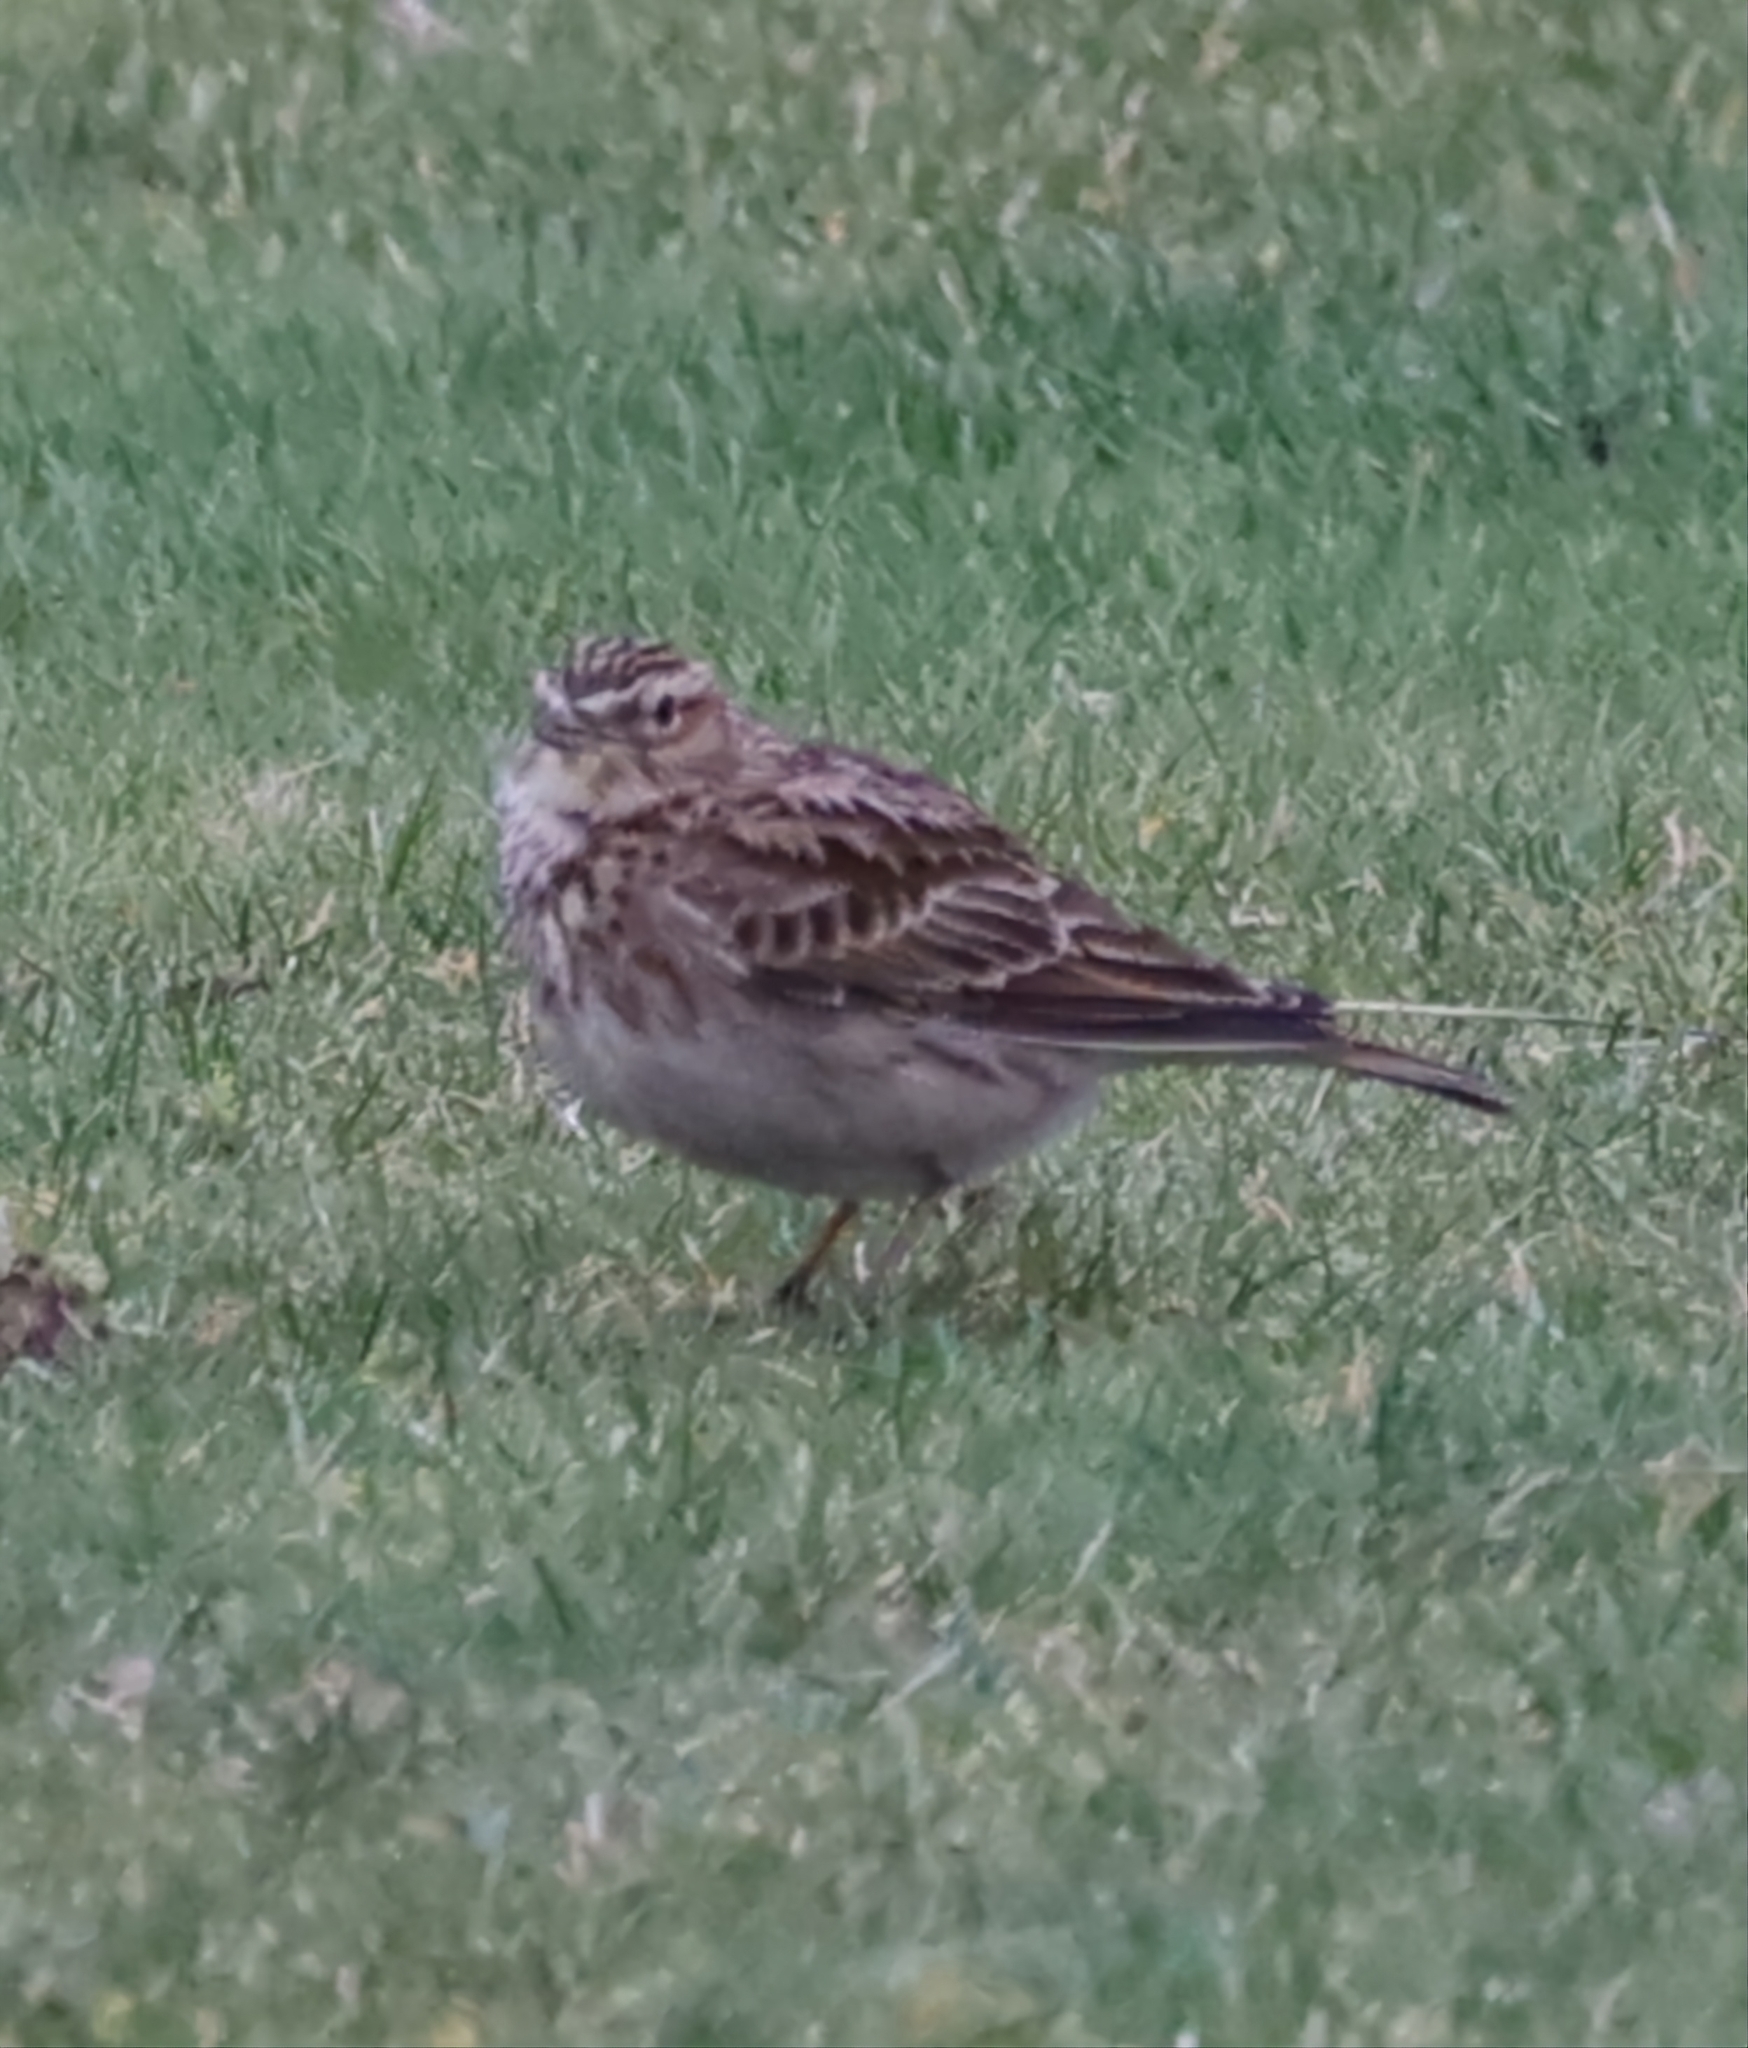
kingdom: Animalia
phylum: Chordata
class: Aves
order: Passeriformes
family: Alaudidae
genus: Alauda
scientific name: Alauda arvensis
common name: Eurasian skylark
